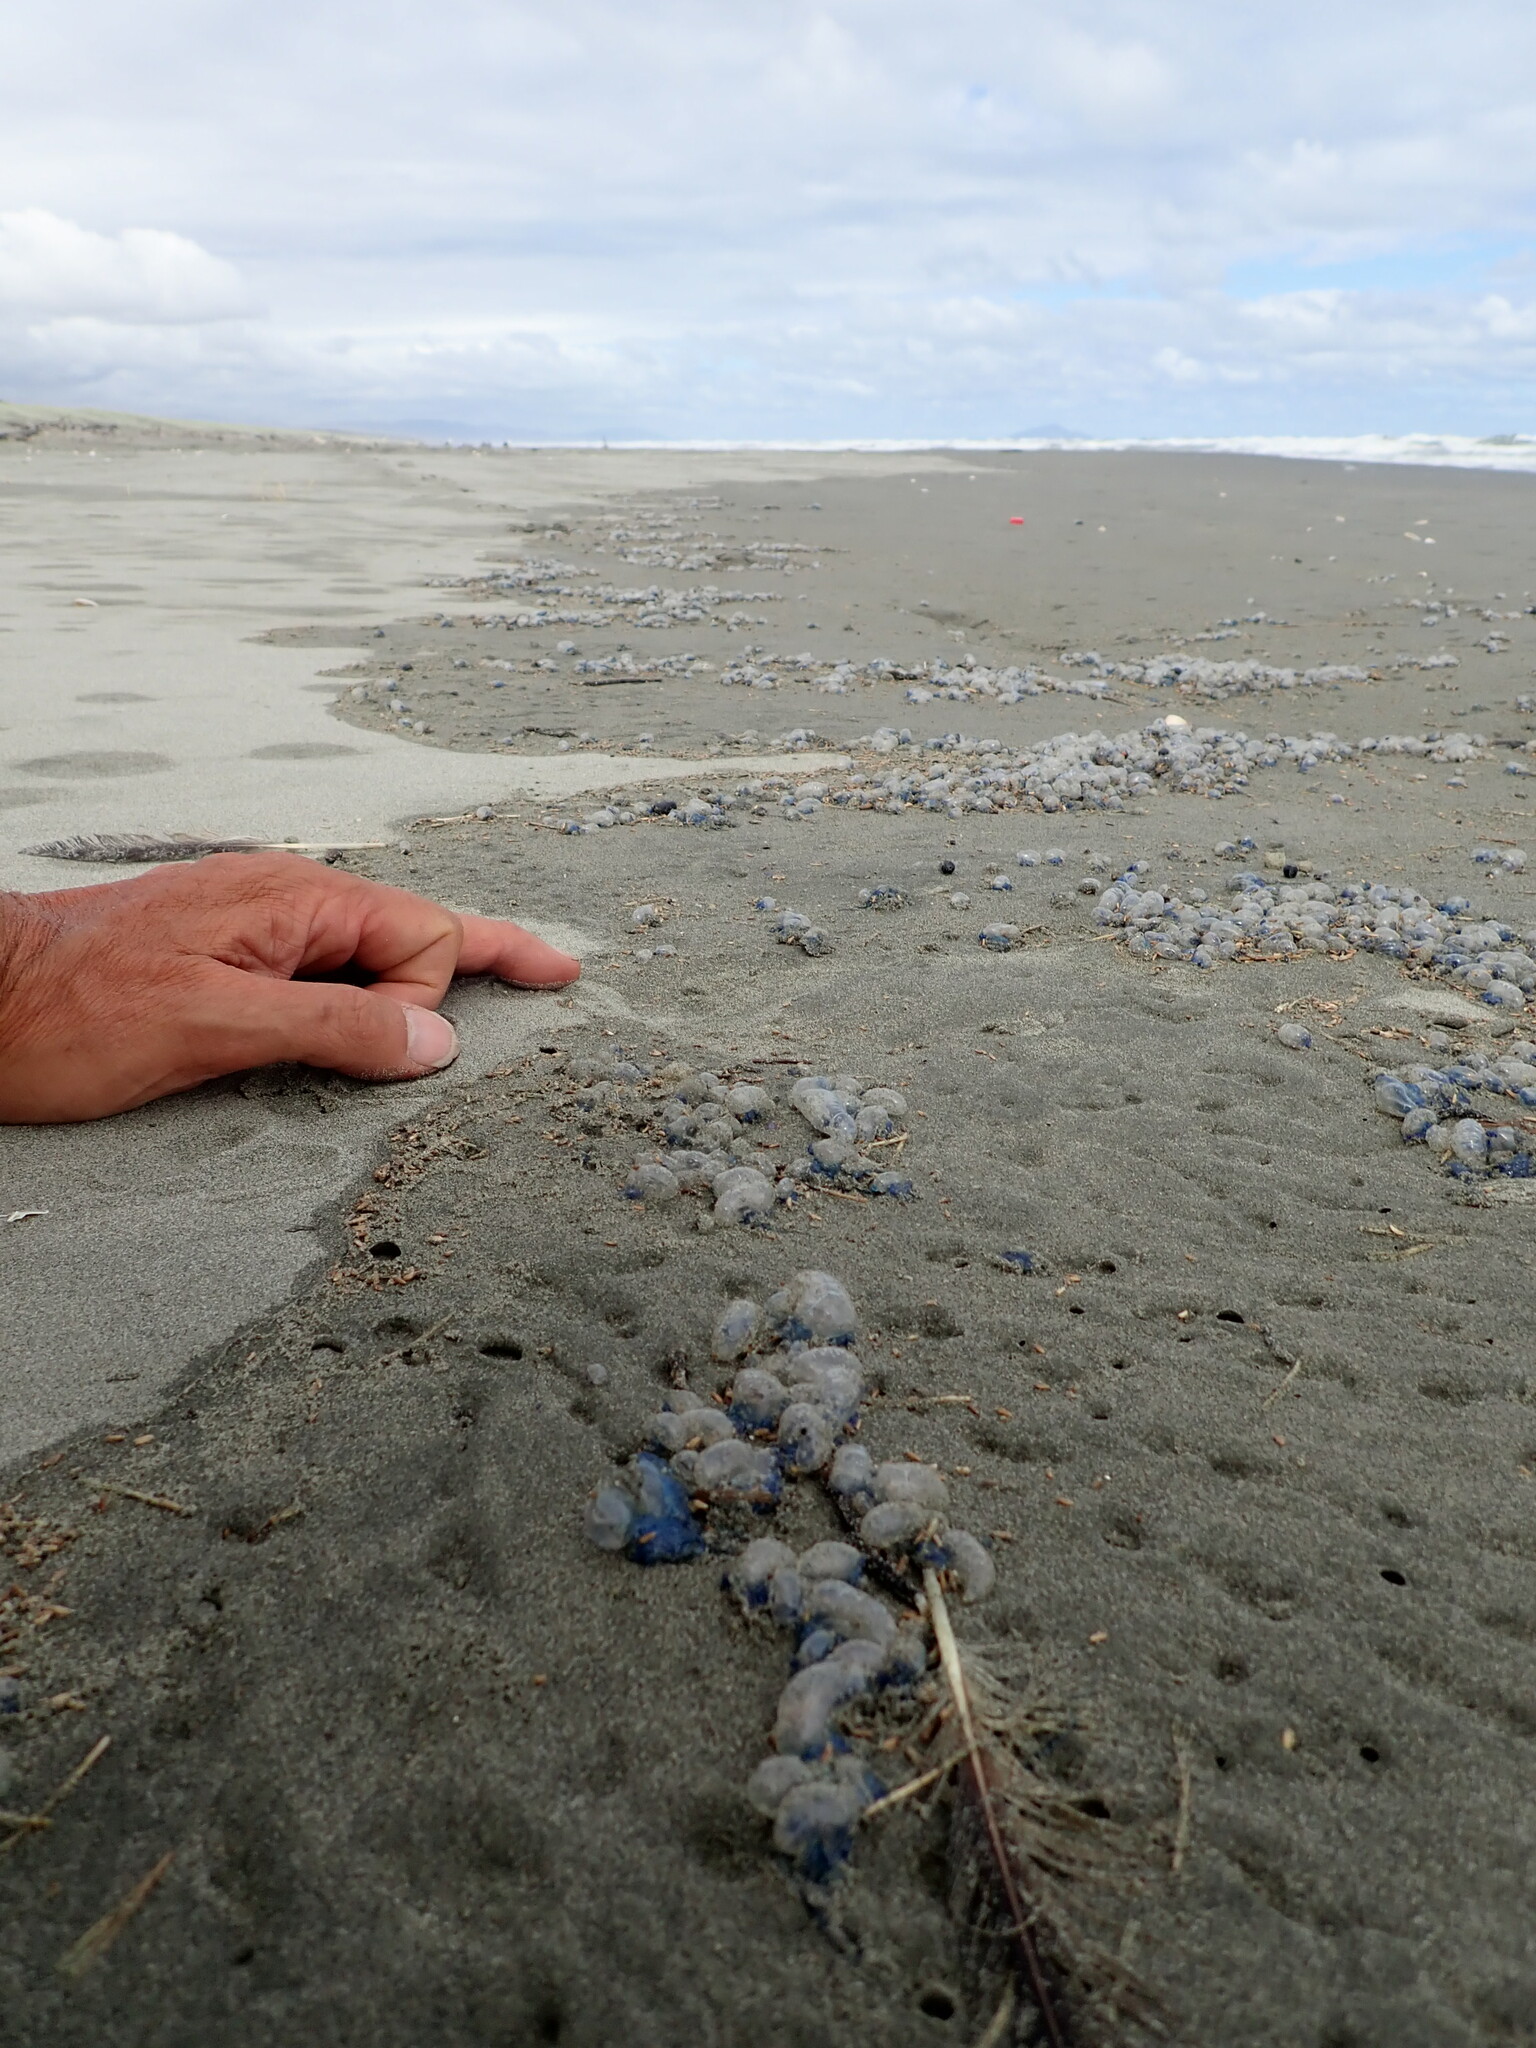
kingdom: Animalia
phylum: Cnidaria
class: Hydrozoa
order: Siphonophorae
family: Physaliidae
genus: Physalia
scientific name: Physalia physalis
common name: Portuguese man-of-war
